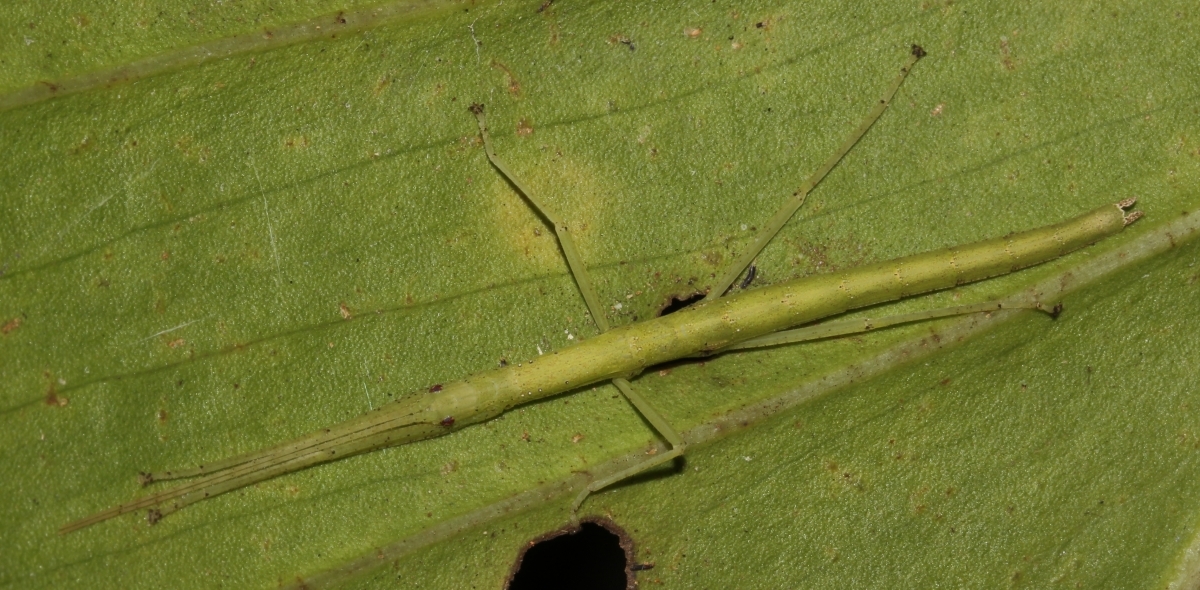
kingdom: Animalia
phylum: Arthropoda
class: Insecta
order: Phasmida
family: Pseudophasmatidae
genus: Metriophasma
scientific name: Metriophasma
